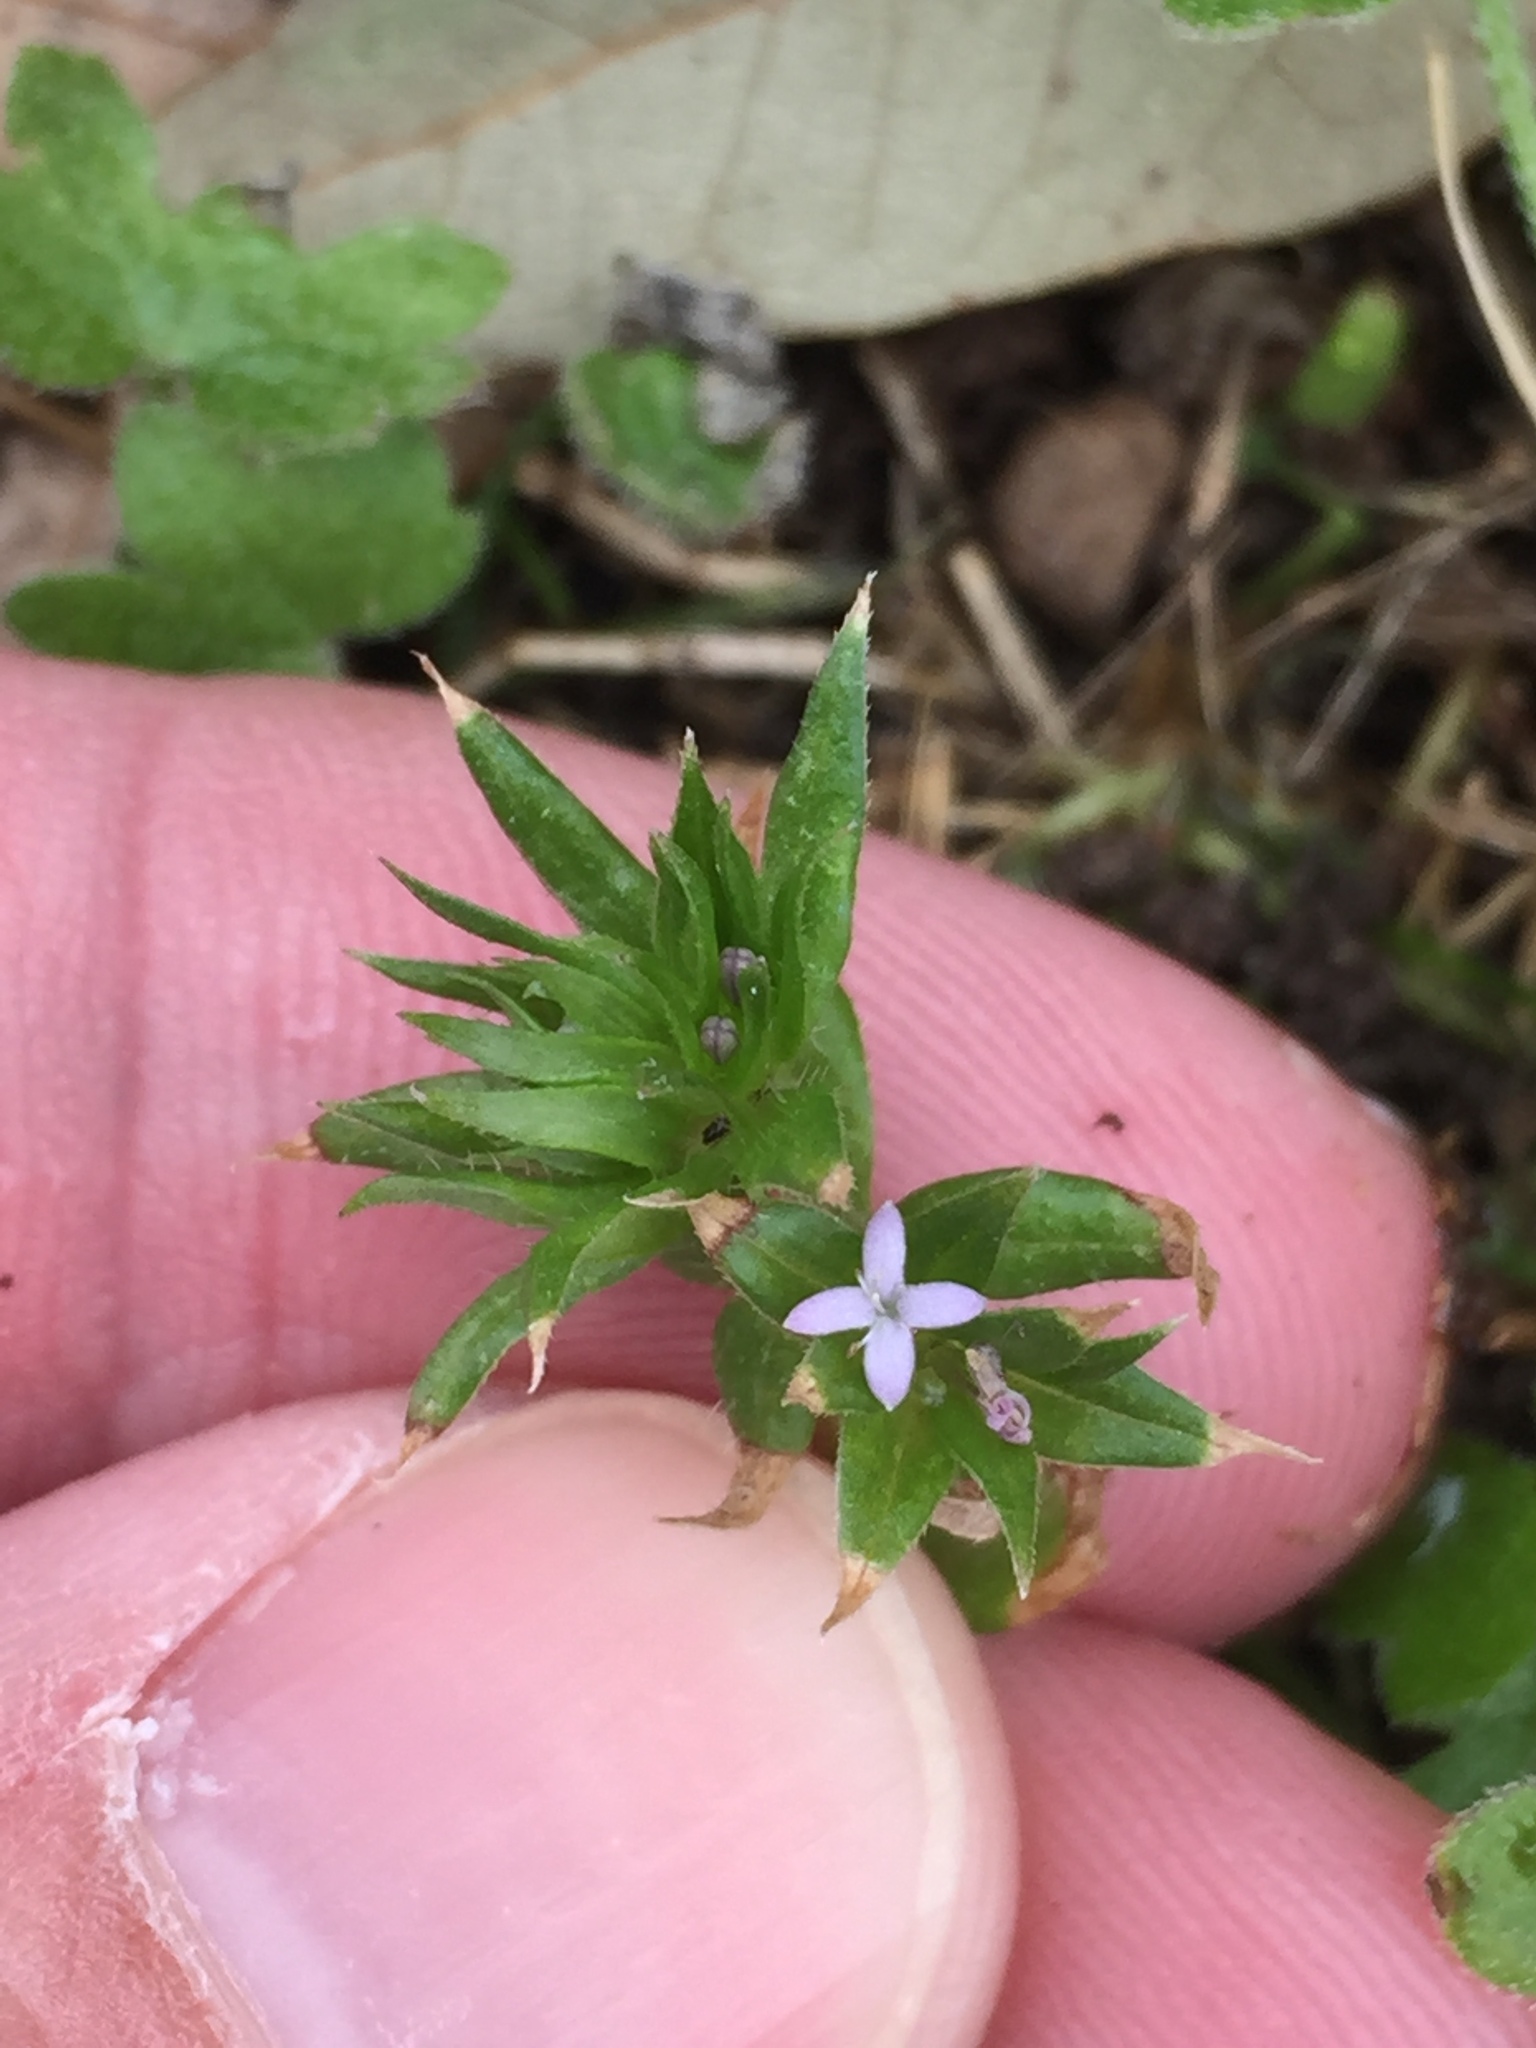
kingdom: Plantae
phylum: Tracheophyta
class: Magnoliopsida
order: Gentianales
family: Rubiaceae
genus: Sherardia
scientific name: Sherardia arvensis
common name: Field madder
